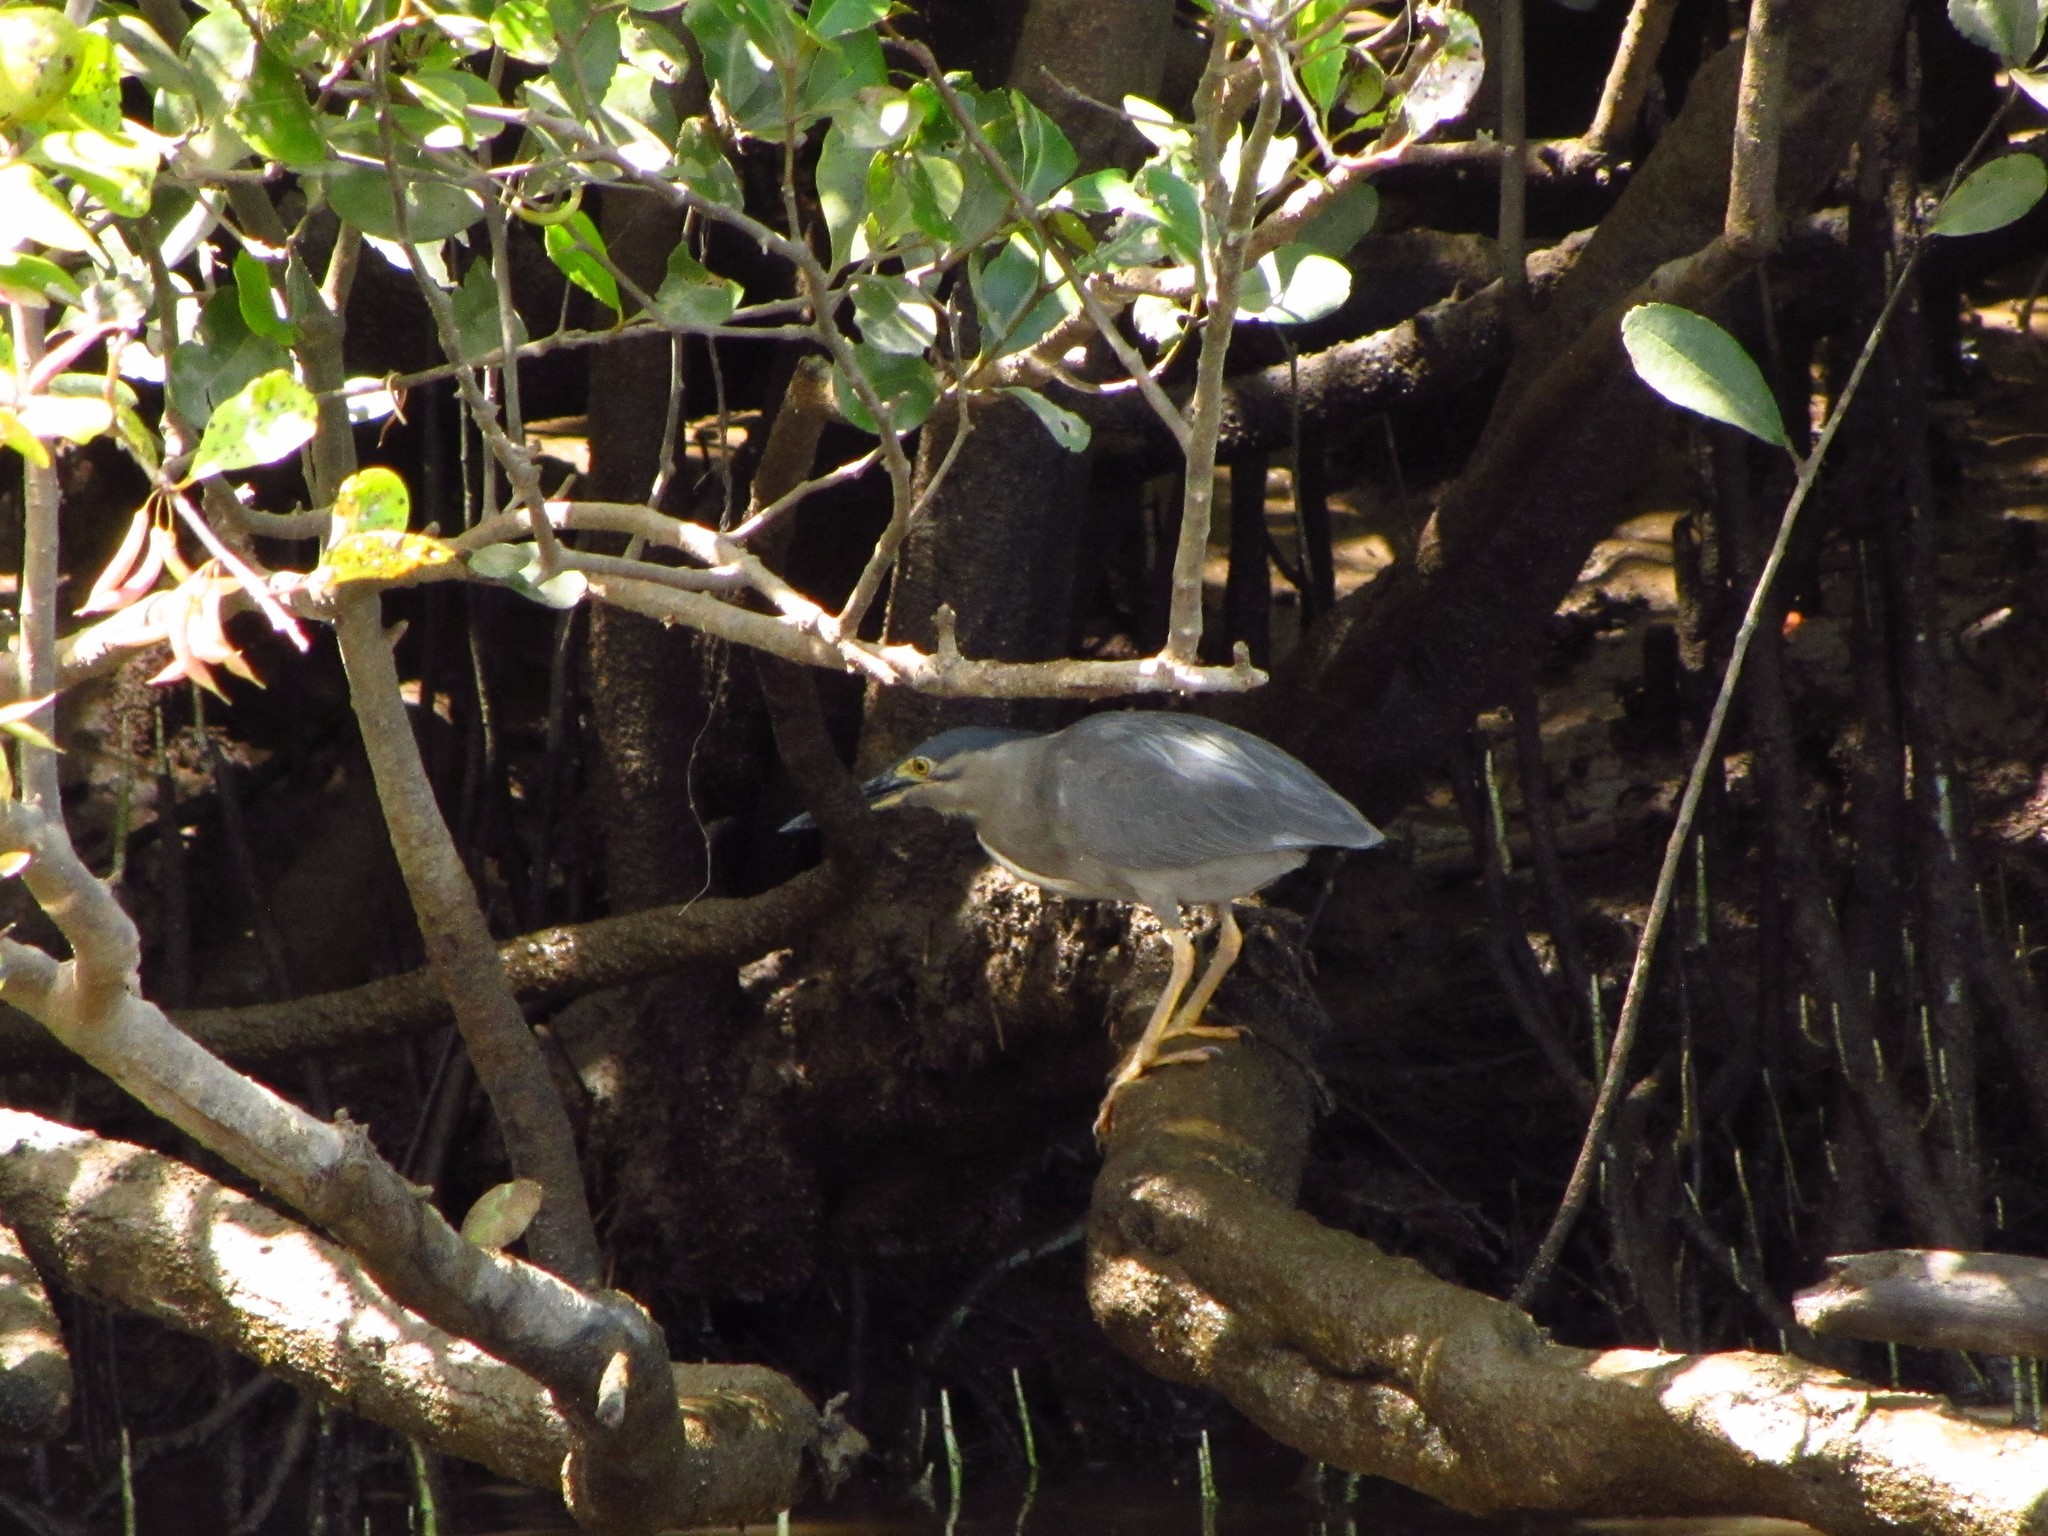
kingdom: Animalia
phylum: Chordata
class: Aves
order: Pelecaniformes
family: Ardeidae
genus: Butorides
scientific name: Butorides striata
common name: Striated heron
